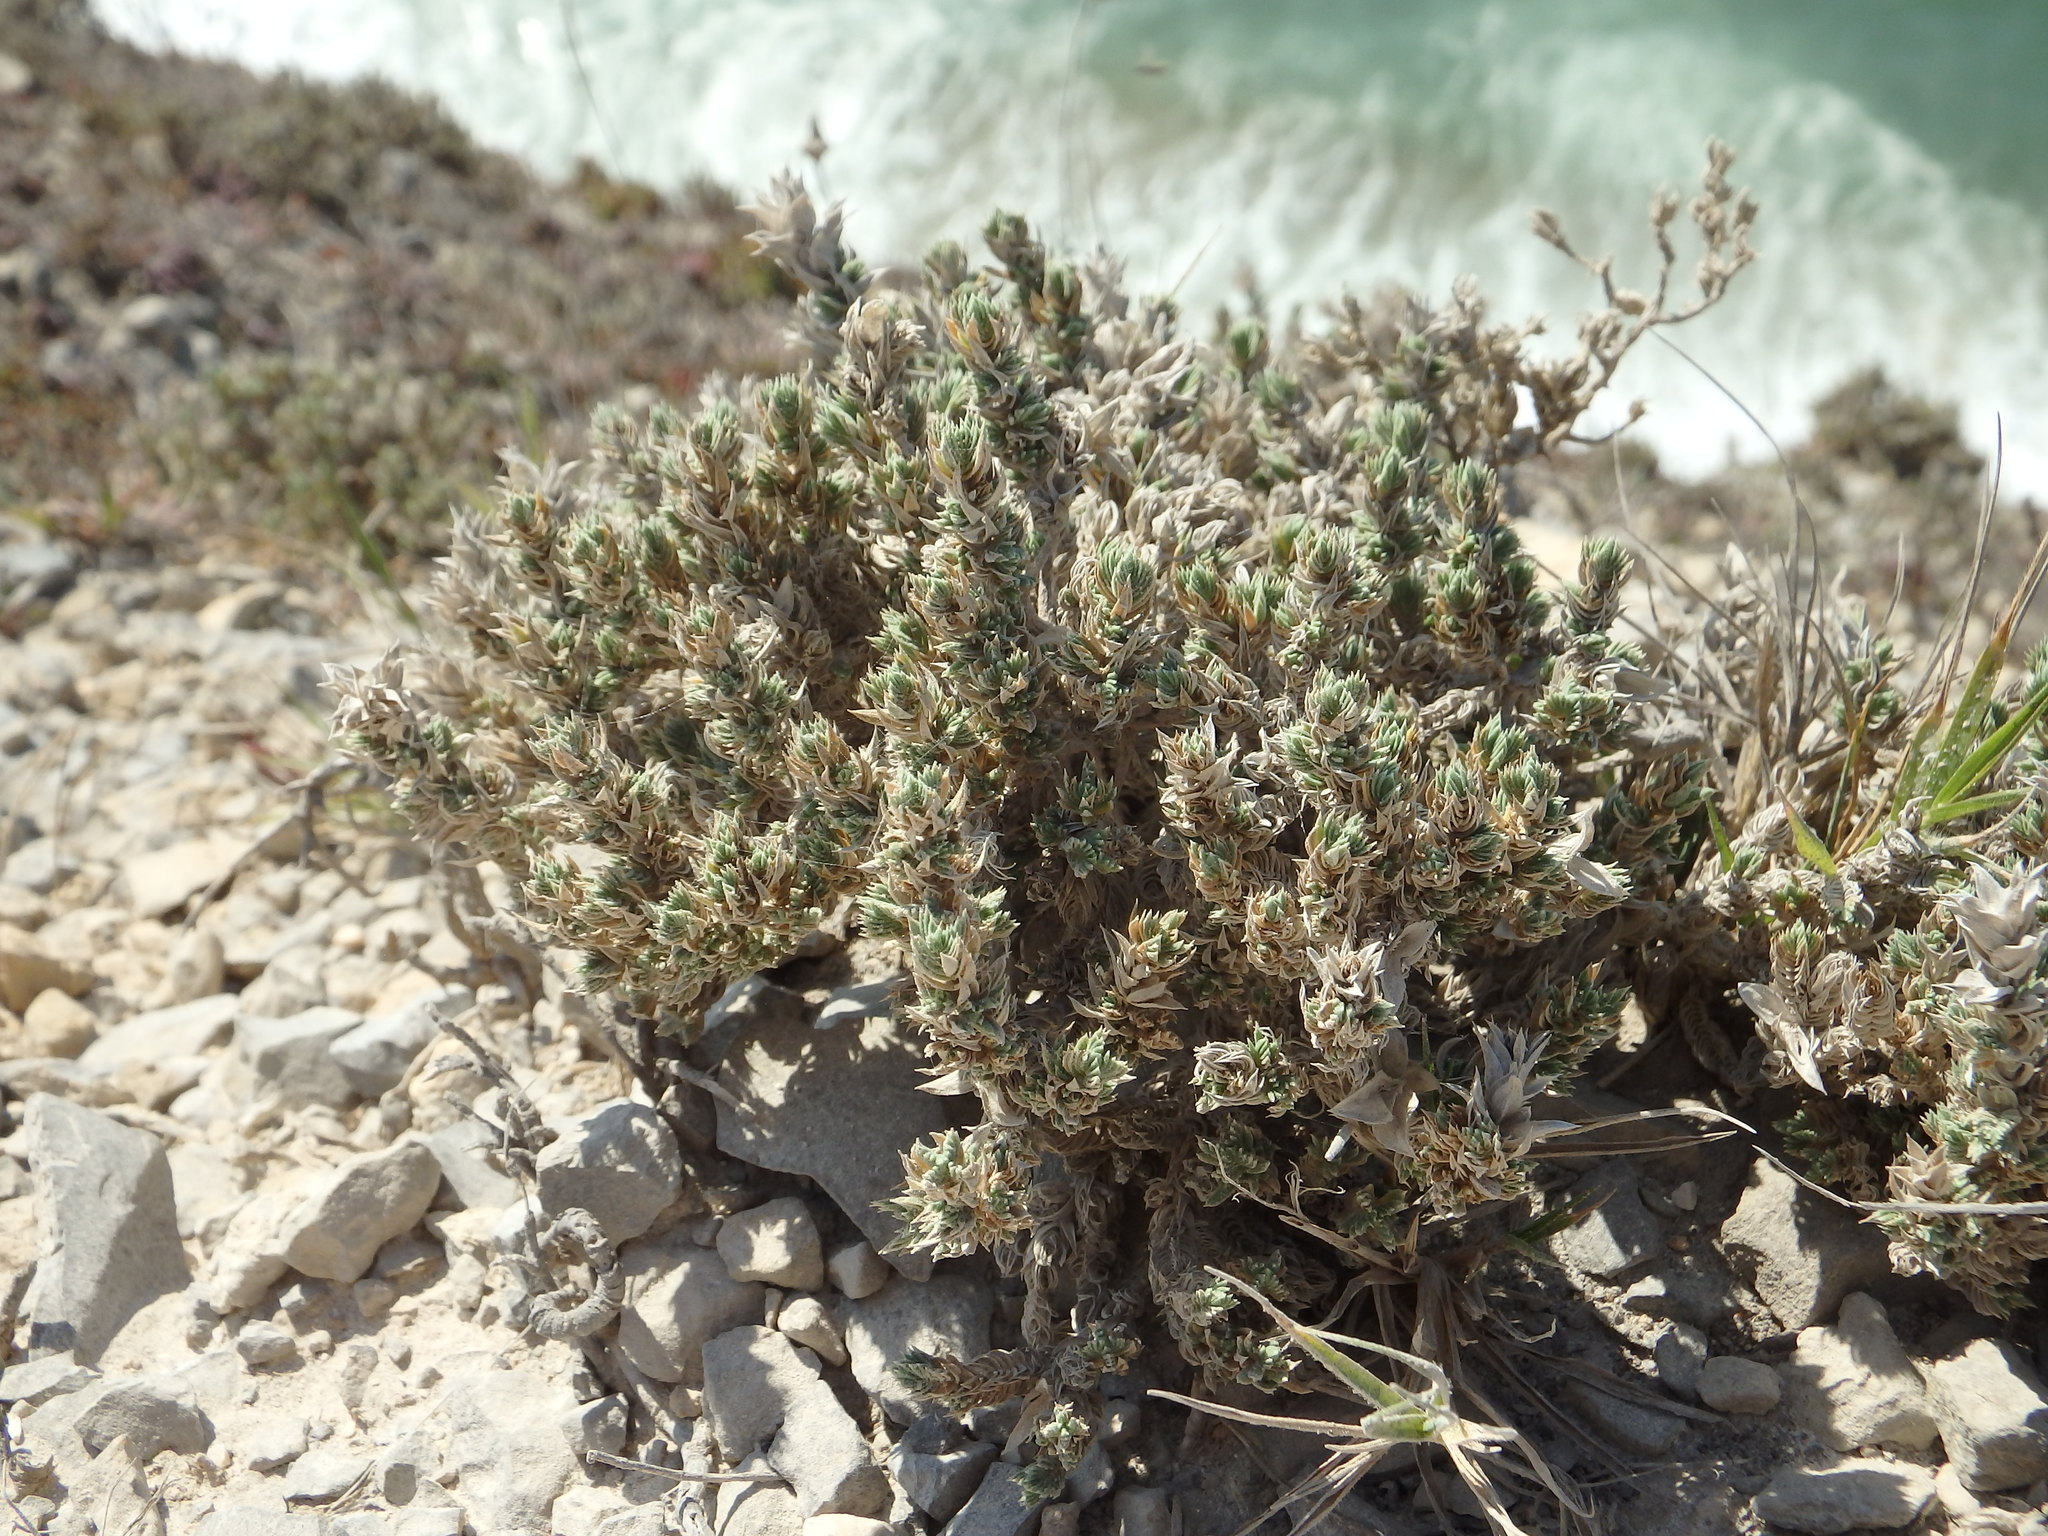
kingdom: Plantae
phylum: Tracheophyta
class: Magnoliopsida
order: Gentianales
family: Rubiaceae
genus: Crucianella
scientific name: Crucianella maritima
